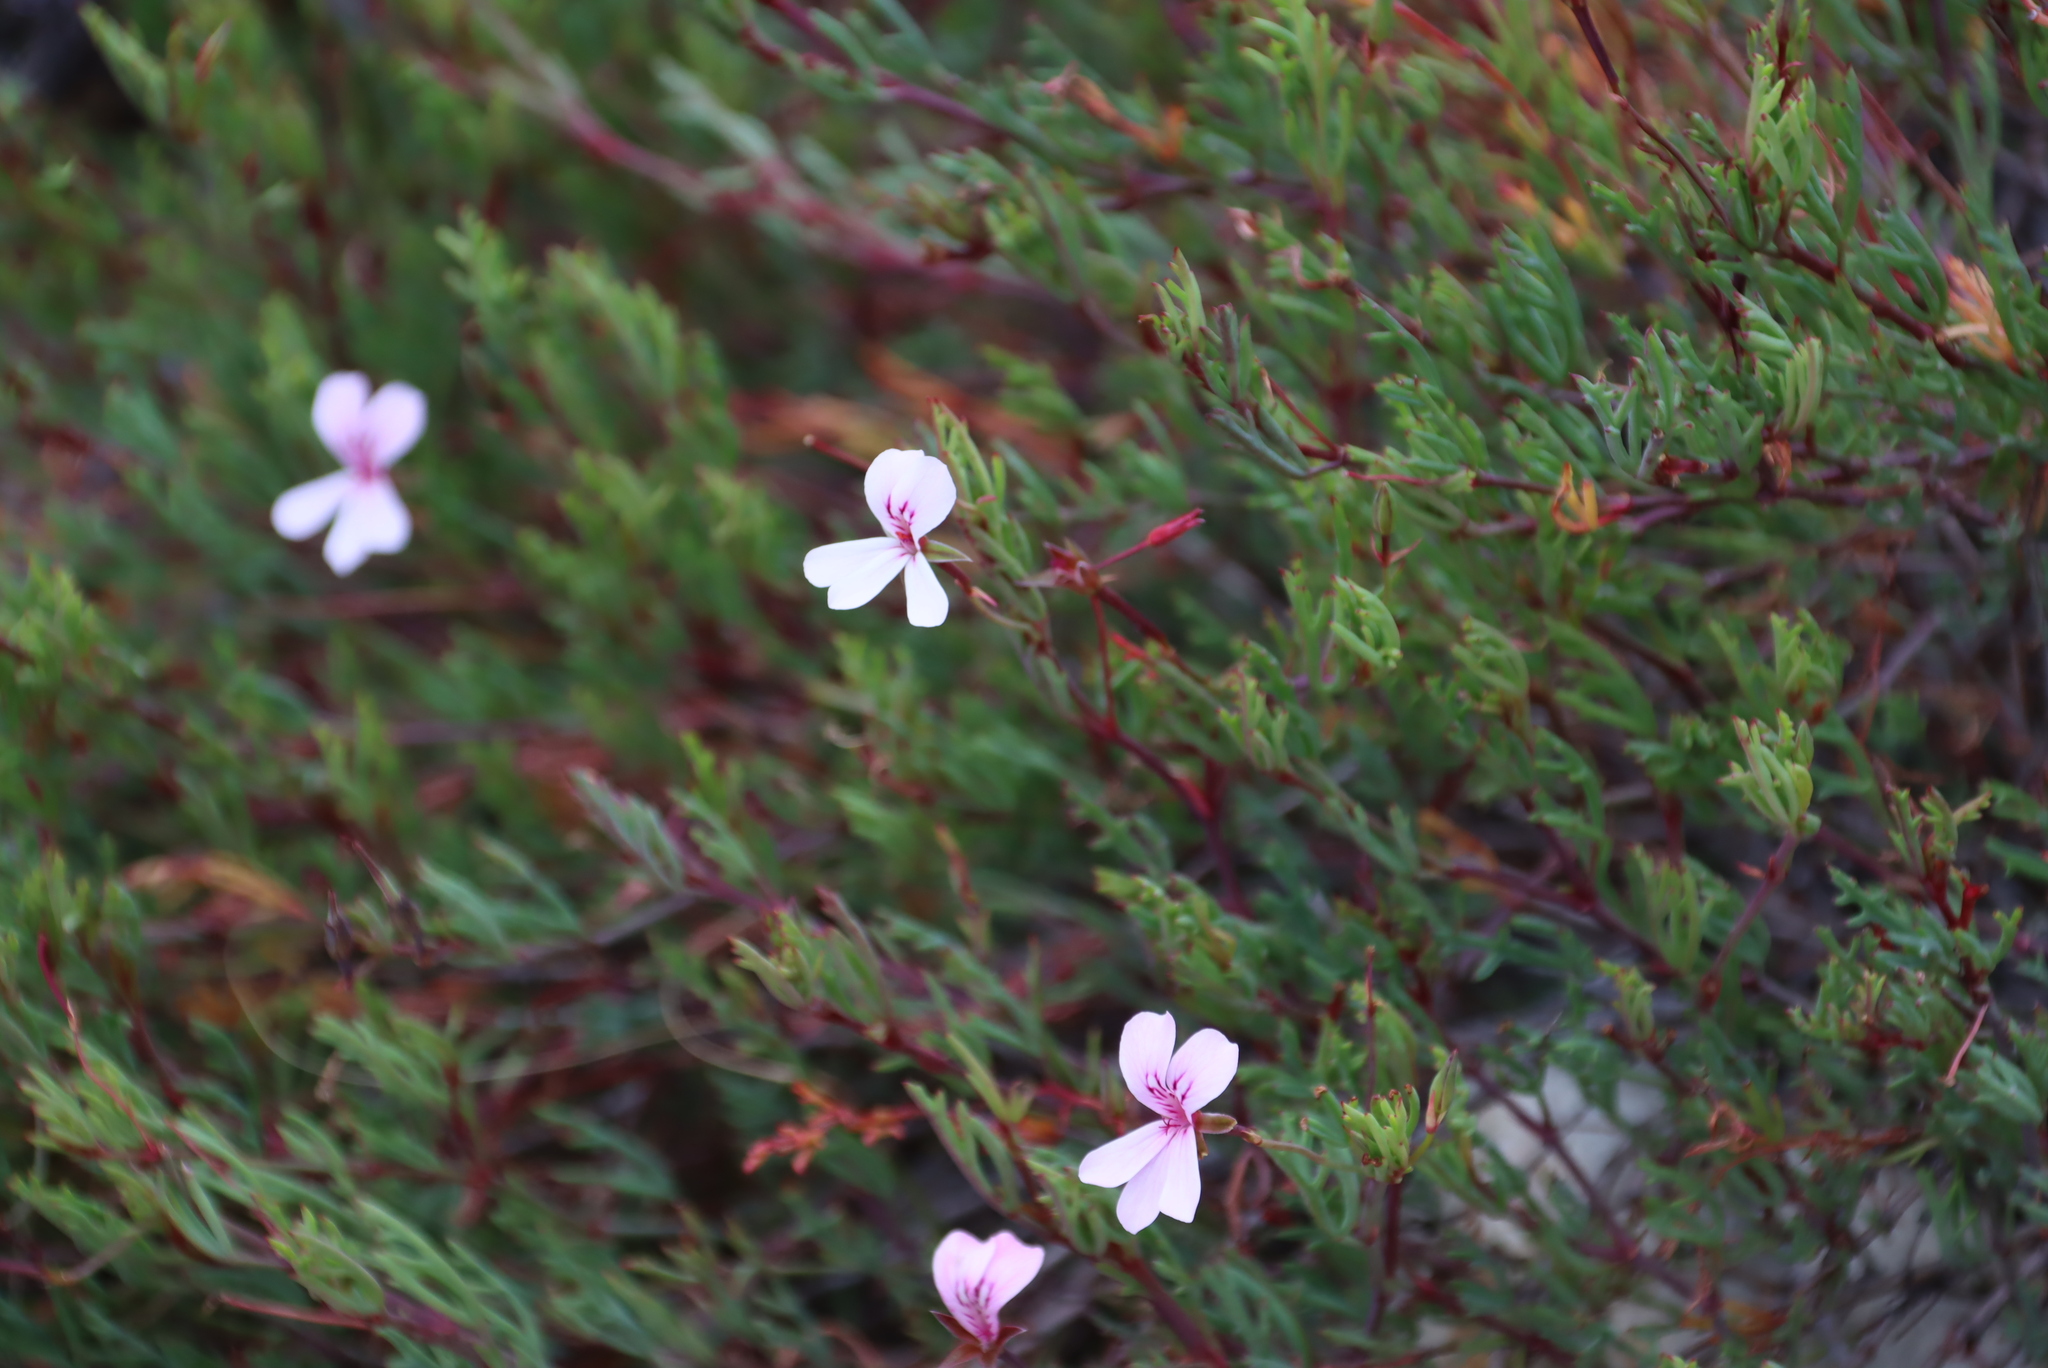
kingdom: Plantae
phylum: Tracheophyta
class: Magnoliopsida
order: Geraniales
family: Geraniaceae
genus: Pelargonium
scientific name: Pelargonium laevigatum
